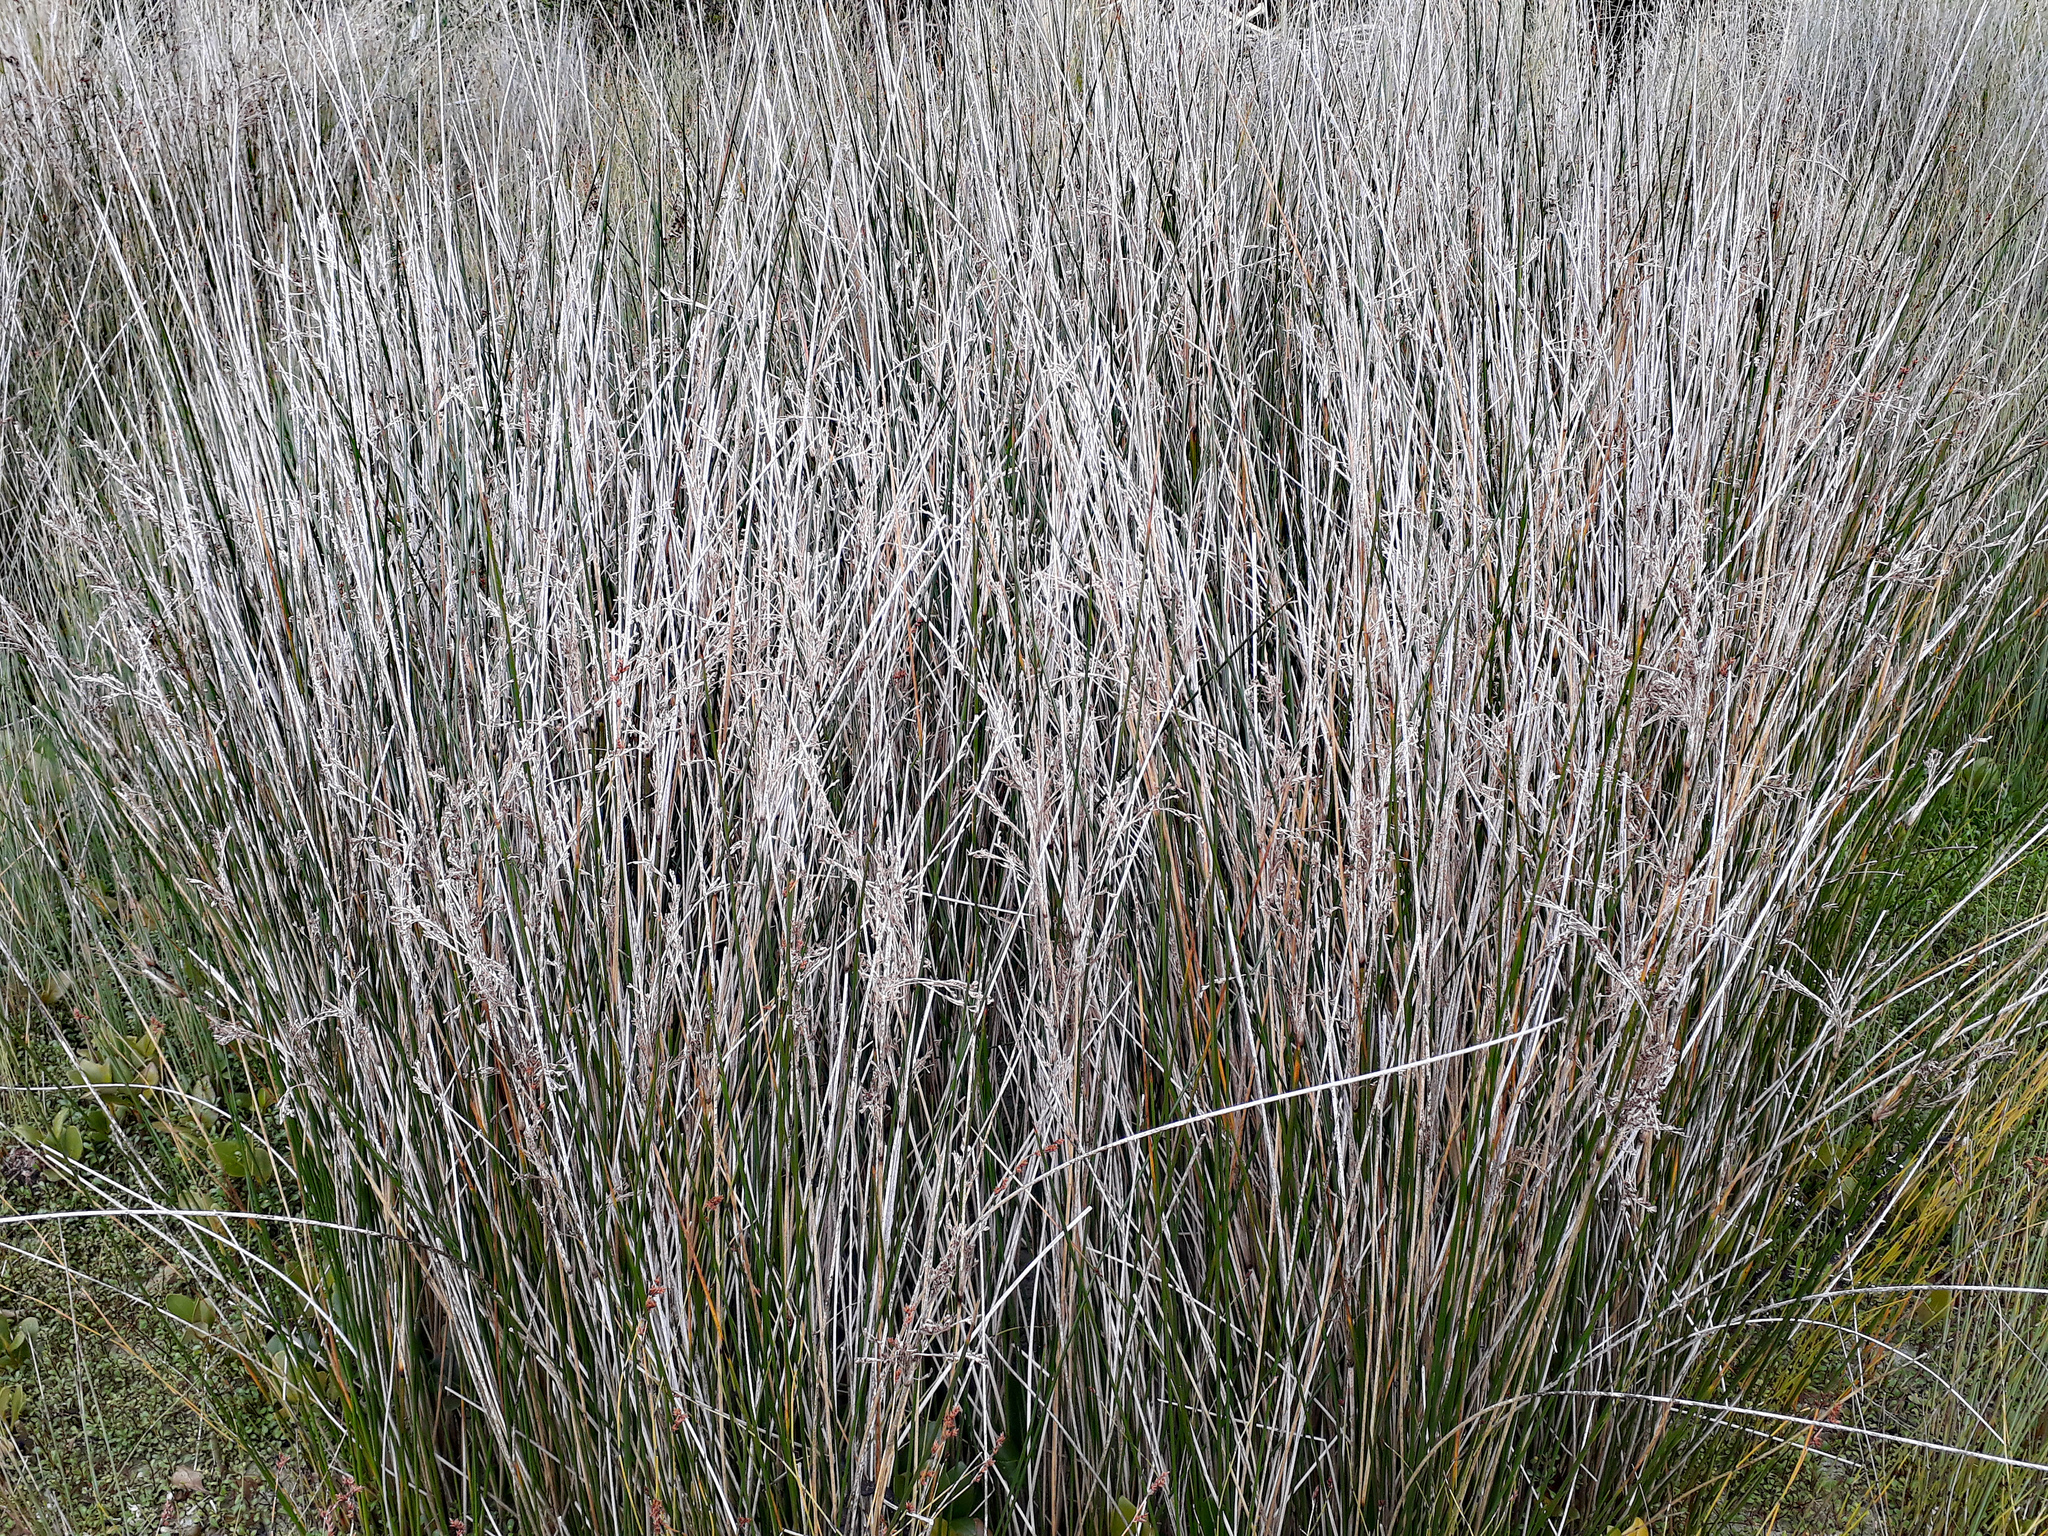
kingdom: Plantae
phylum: Tracheophyta
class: Liliopsida
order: Poales
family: Juncaceae
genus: Juncus
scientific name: Juncus kraussii
